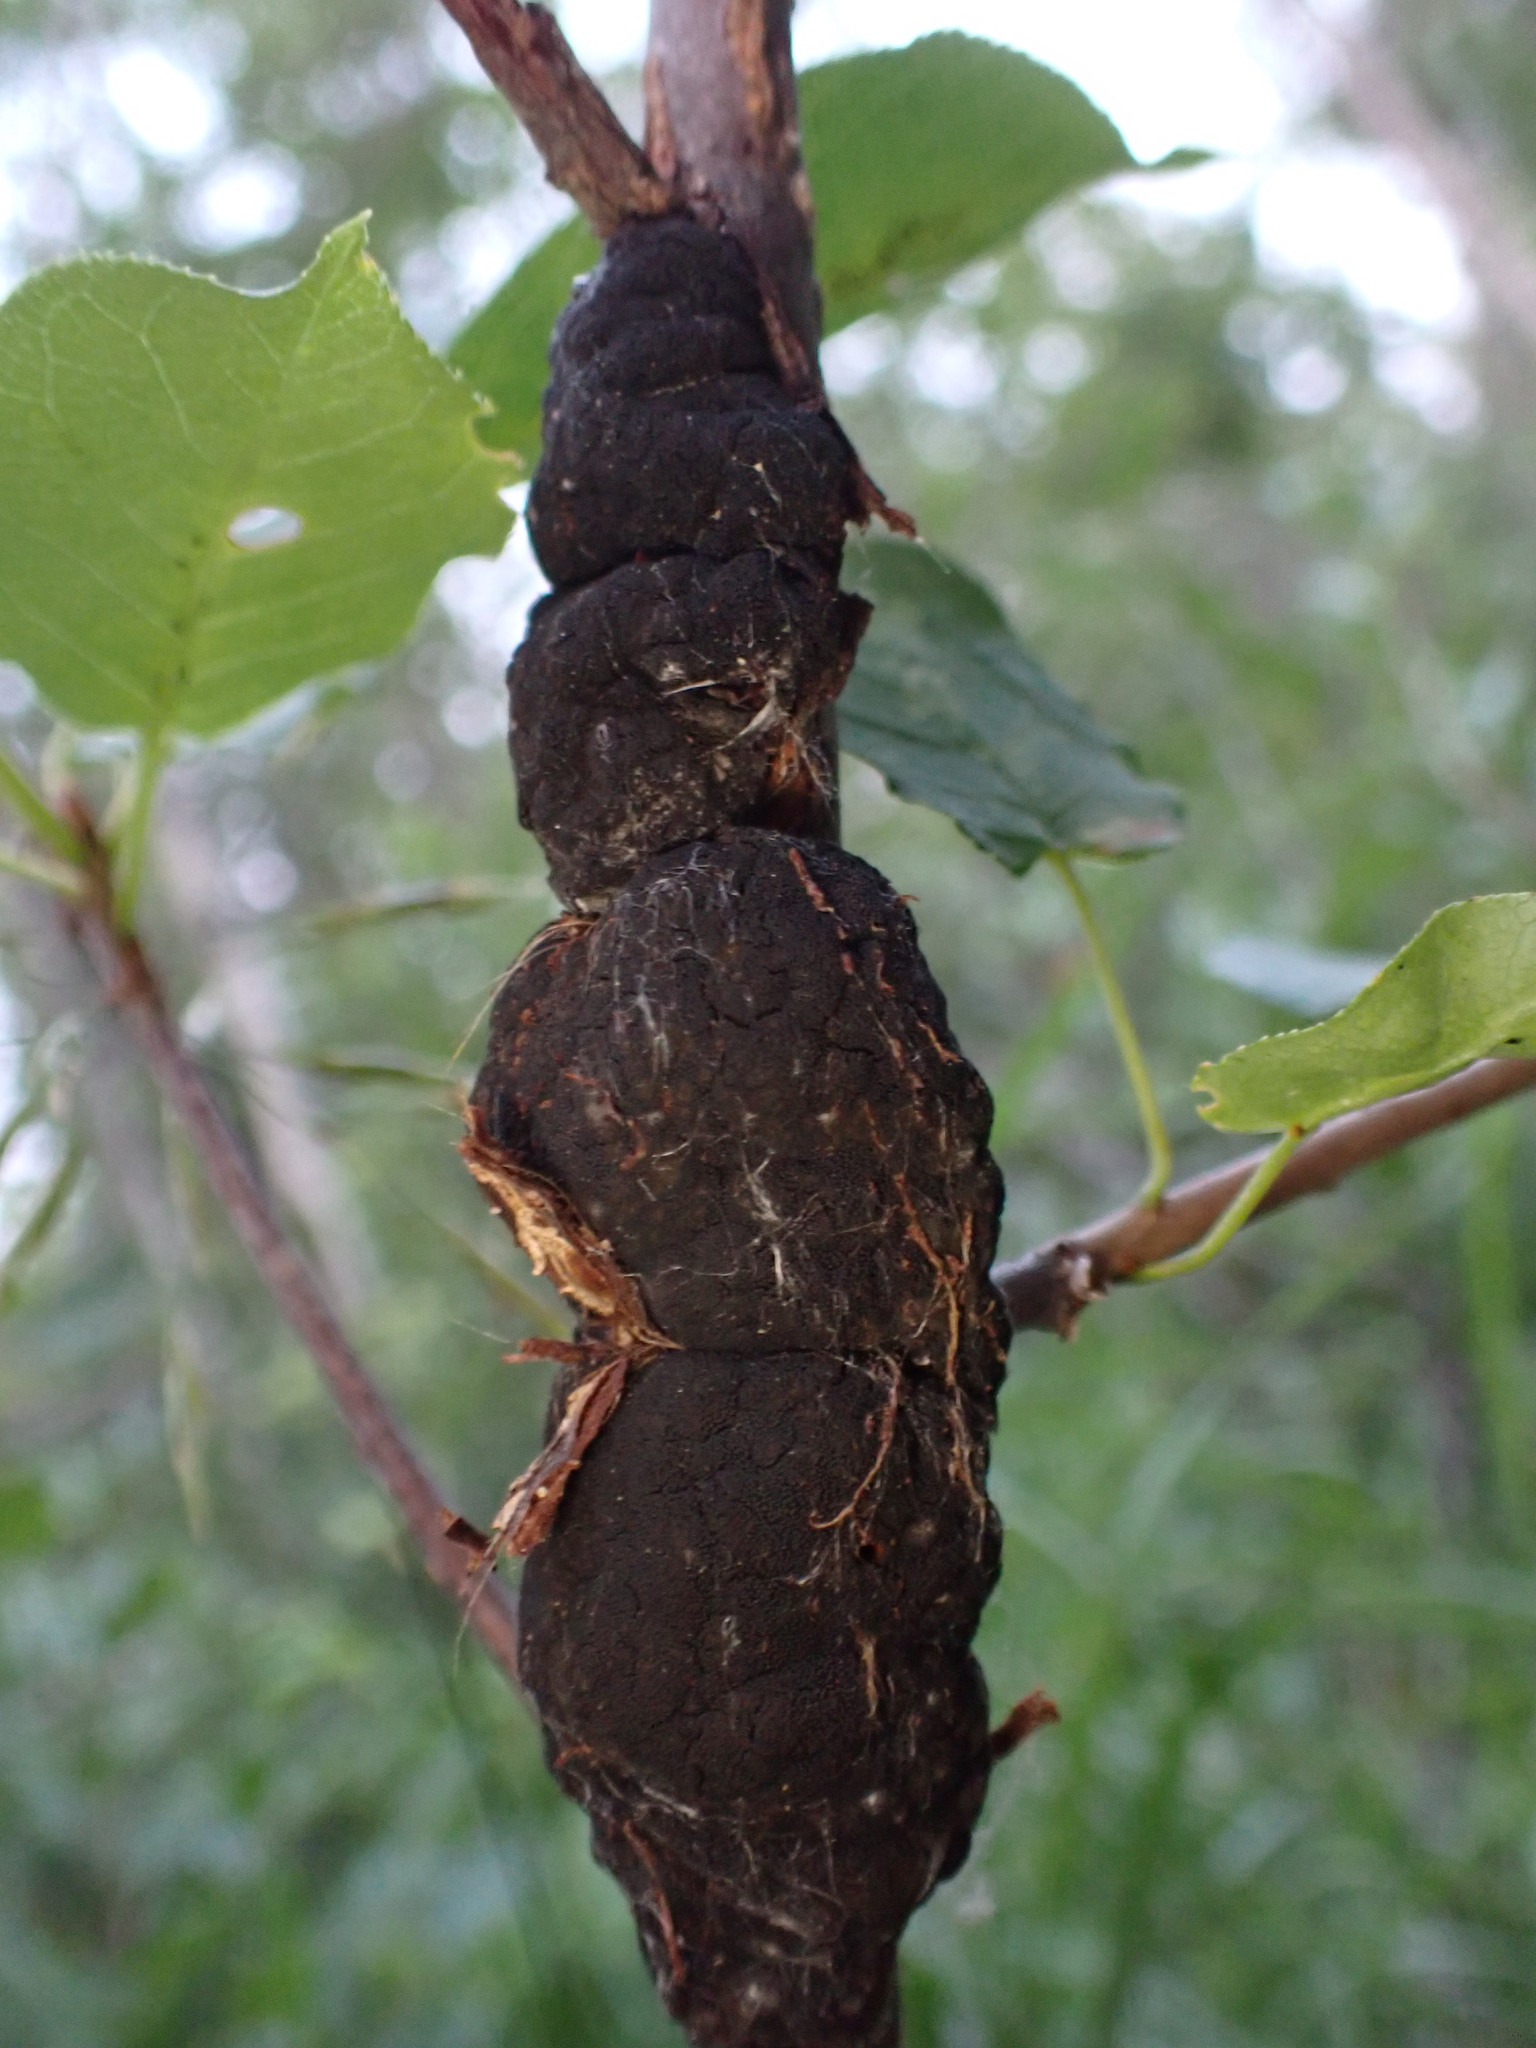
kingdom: Fungi
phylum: Ascomycota
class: Dothideomycetes
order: Venturiales
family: Venturiaceae
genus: Apiosporina
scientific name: Apiosporina morbosa
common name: Black knot
